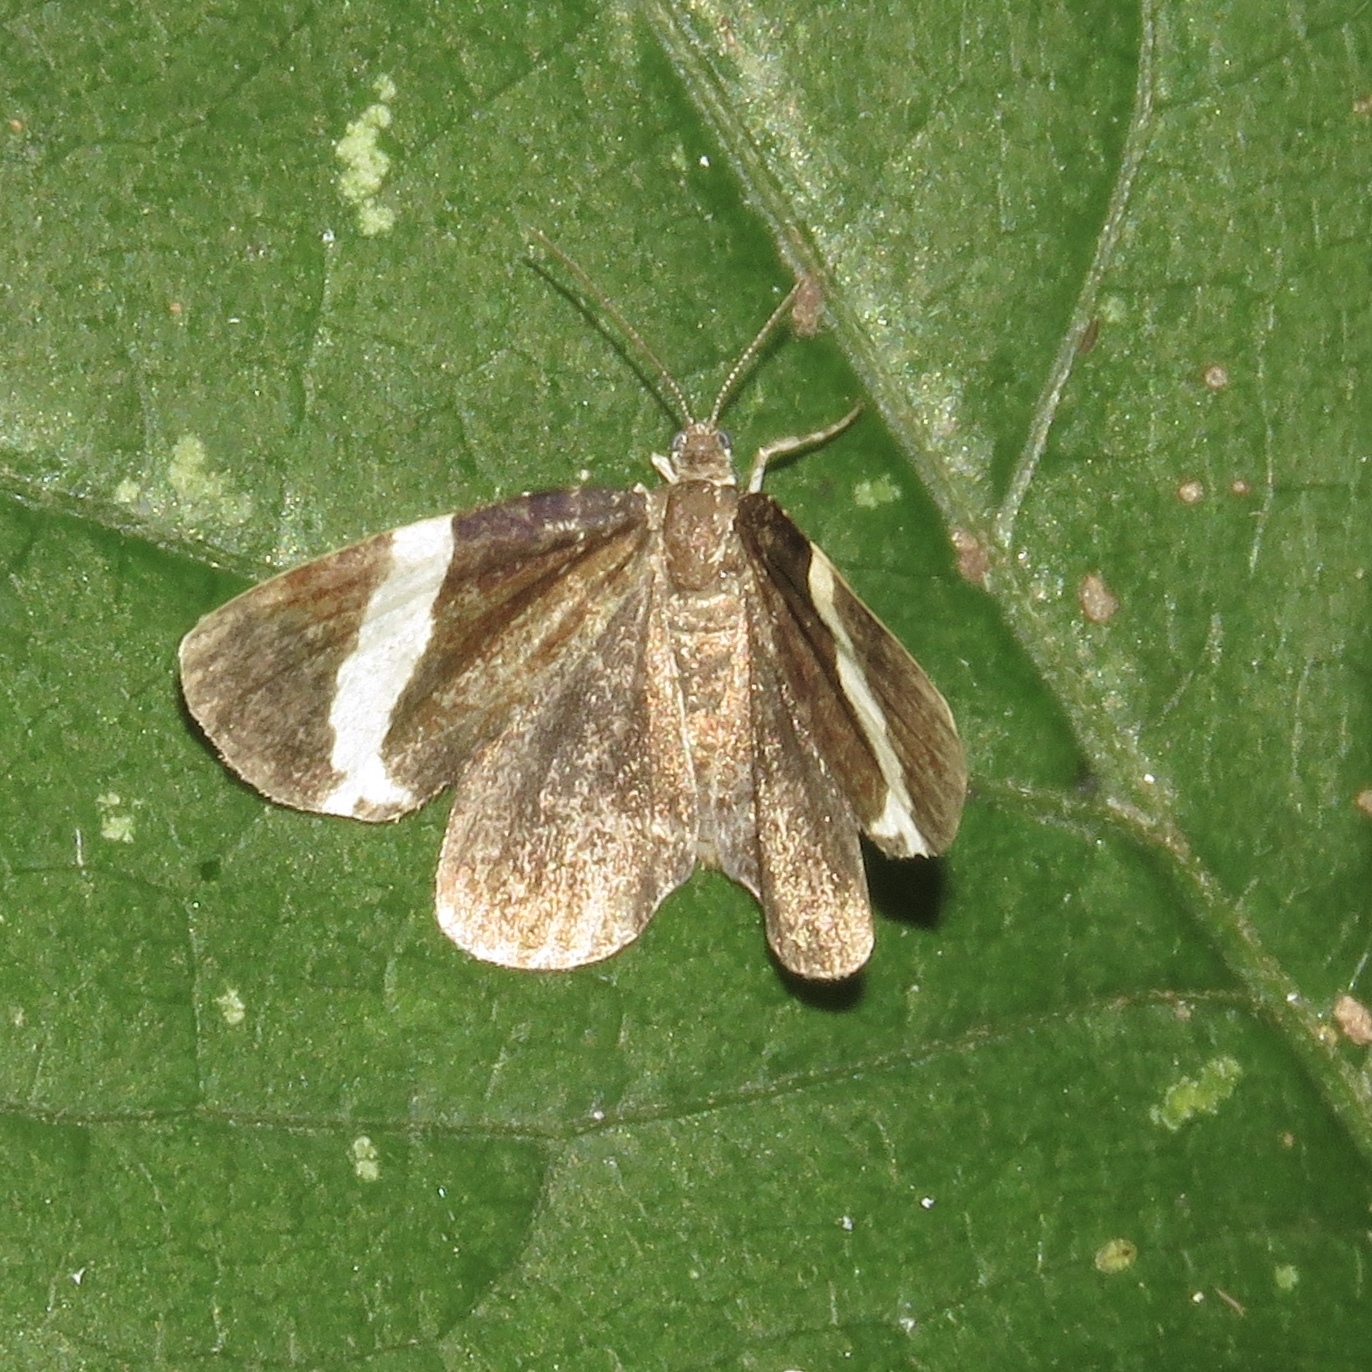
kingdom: Animalia
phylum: Arthropoda
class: Insecta
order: Lepidoptera
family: Geometridae
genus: Trichodezia
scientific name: Trichodezia albovittata
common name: White striped black
